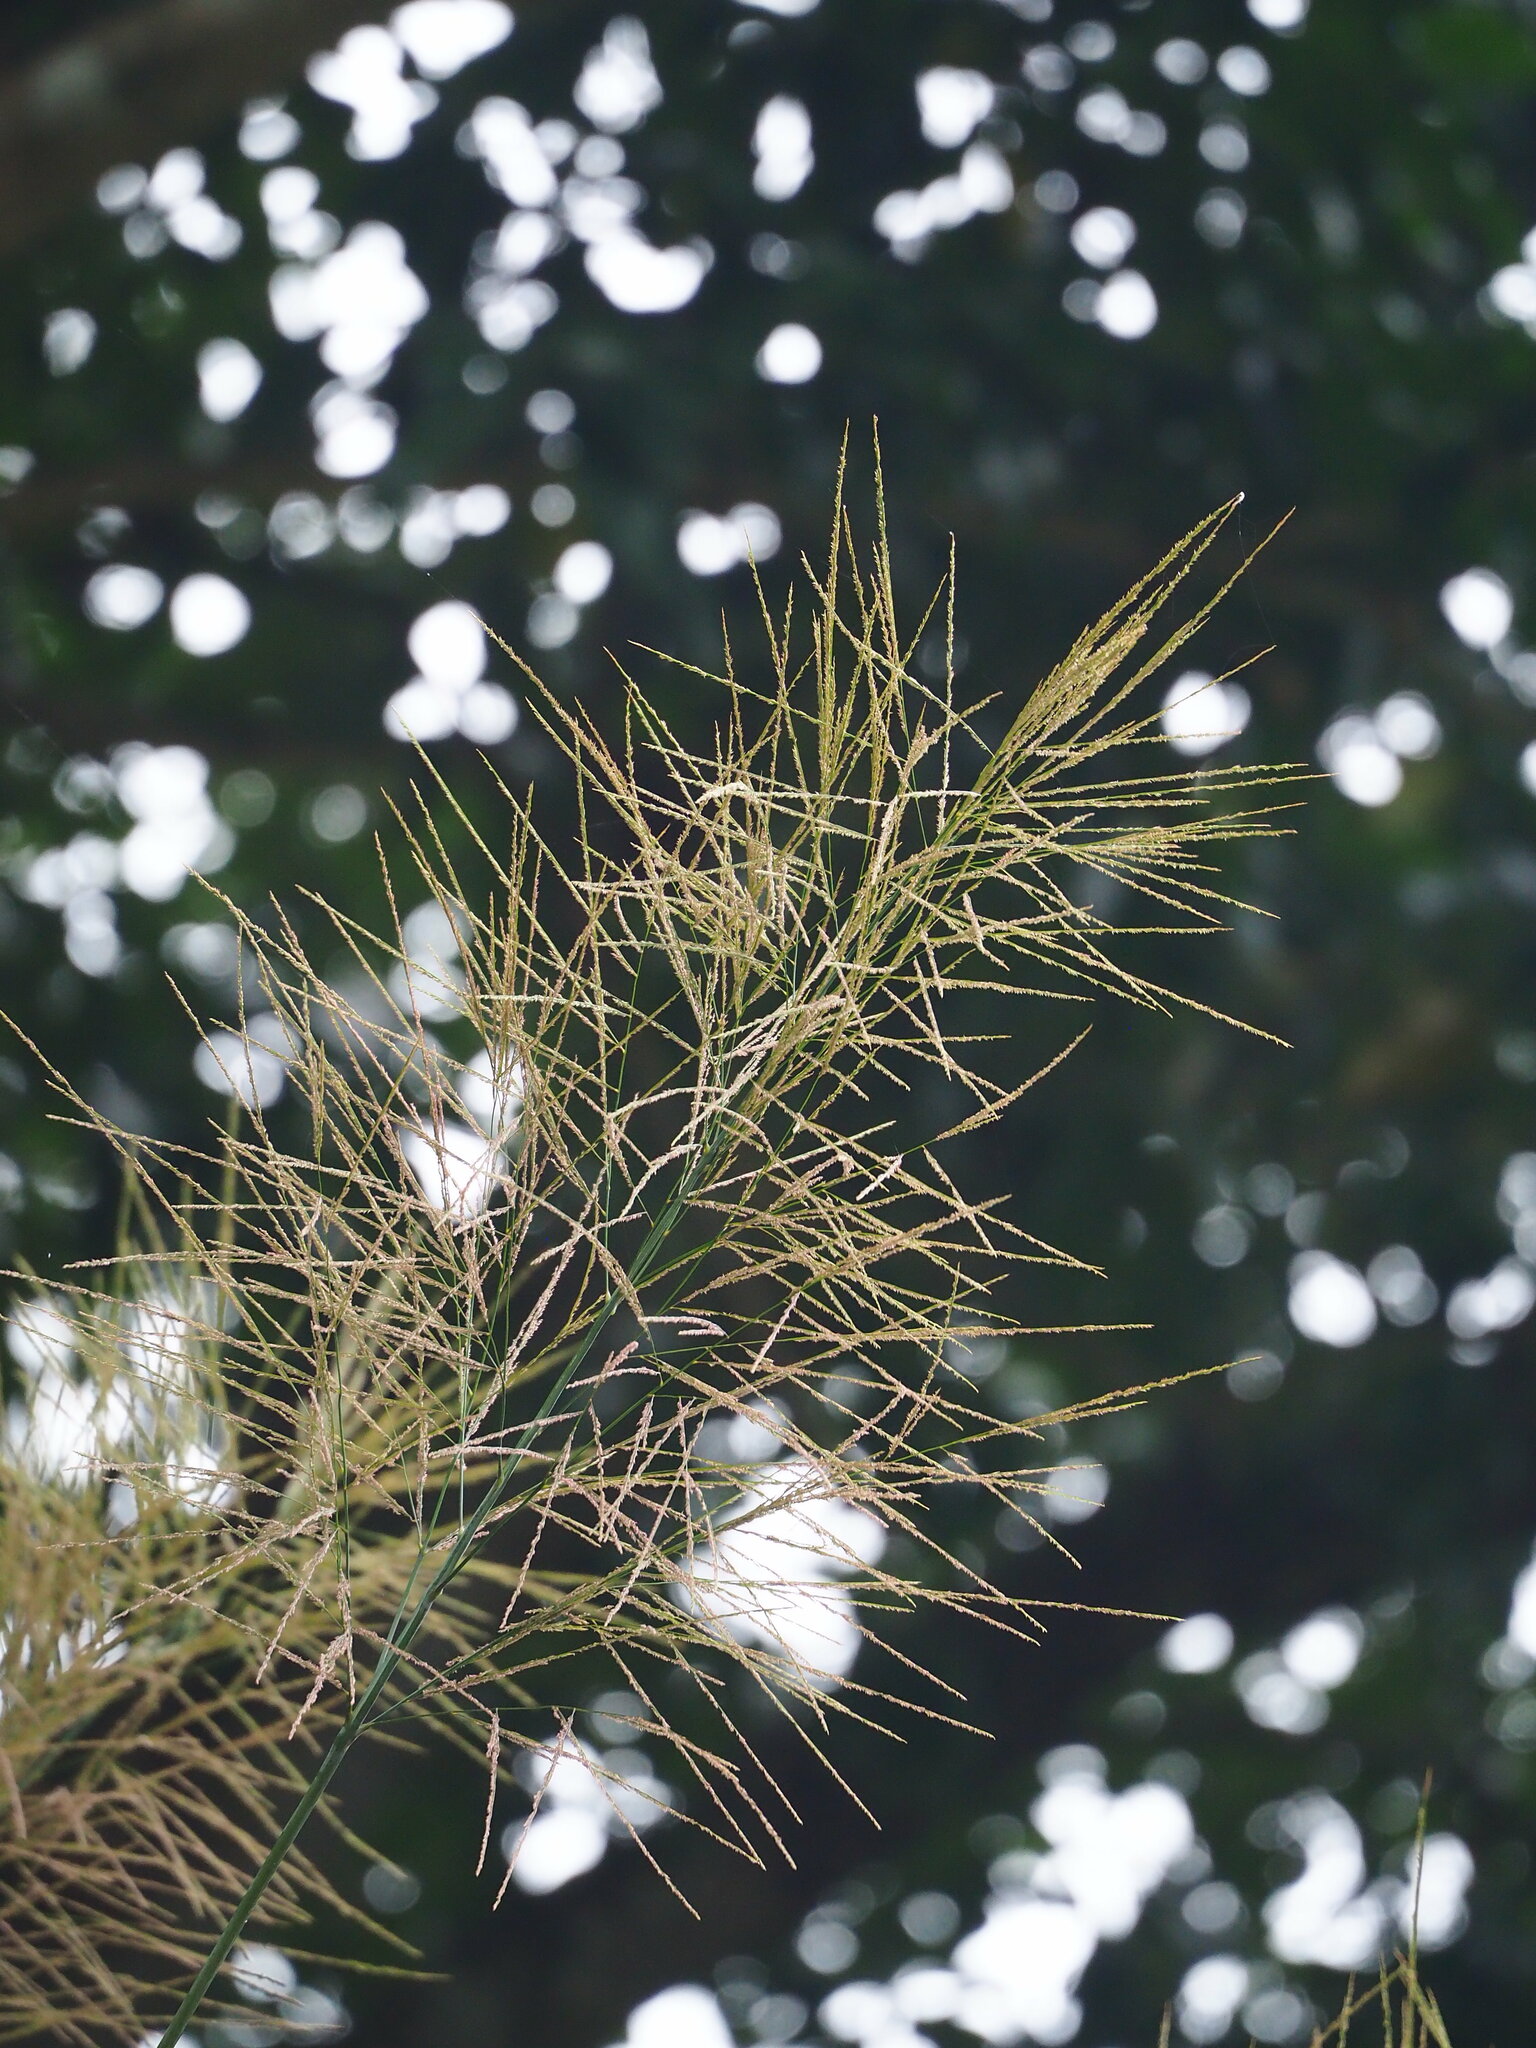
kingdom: Plantae
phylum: Tracheophyta
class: Liliopsida
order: Poales
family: Poaceae
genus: Thysanolaena
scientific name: Thysanolaena latifolia
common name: Tiger grass
